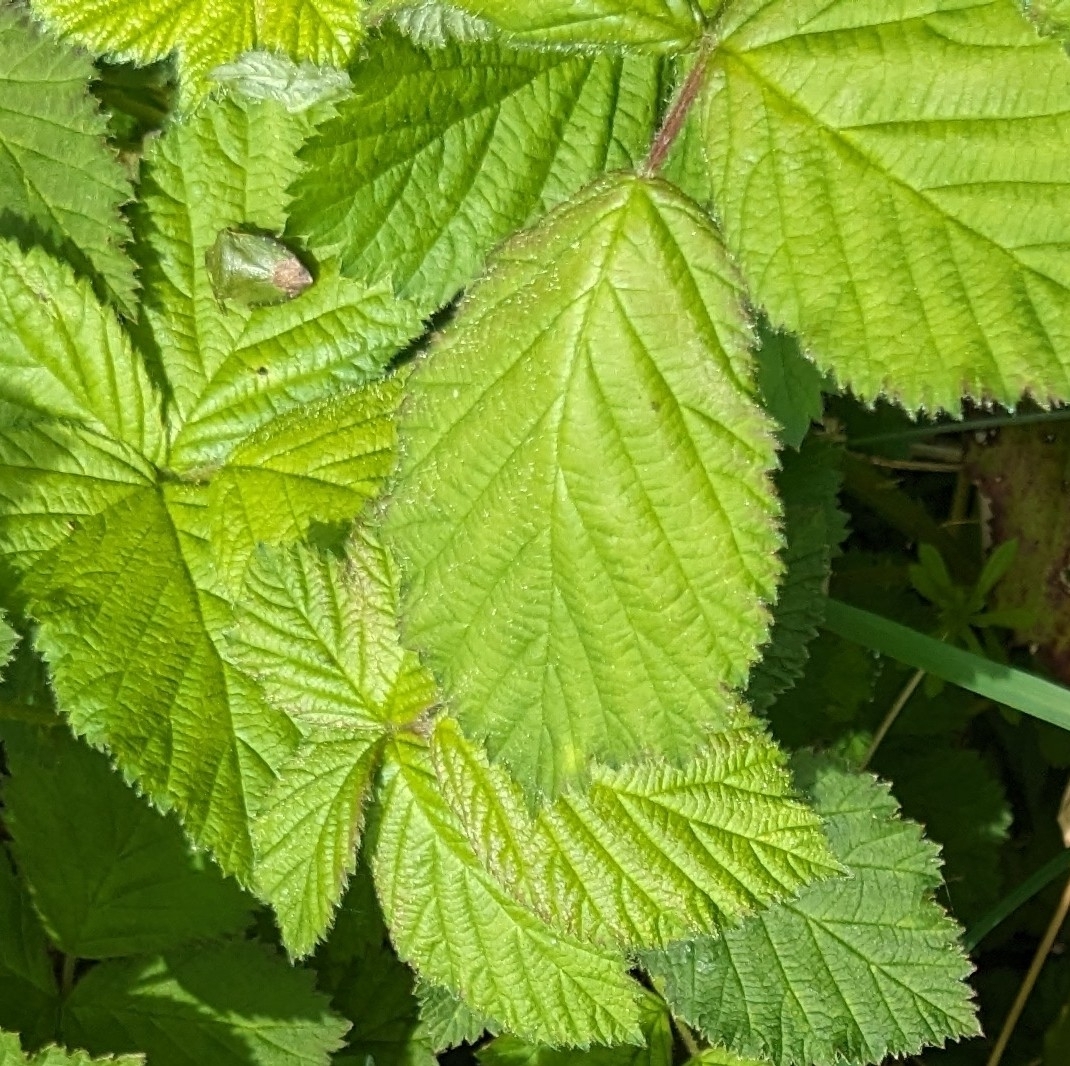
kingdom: Animalia
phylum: Arthropoda
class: Insecta
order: Hemiptera
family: Pentatomidae
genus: Palomena
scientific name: Palomena prasina
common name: Green shieldbug
